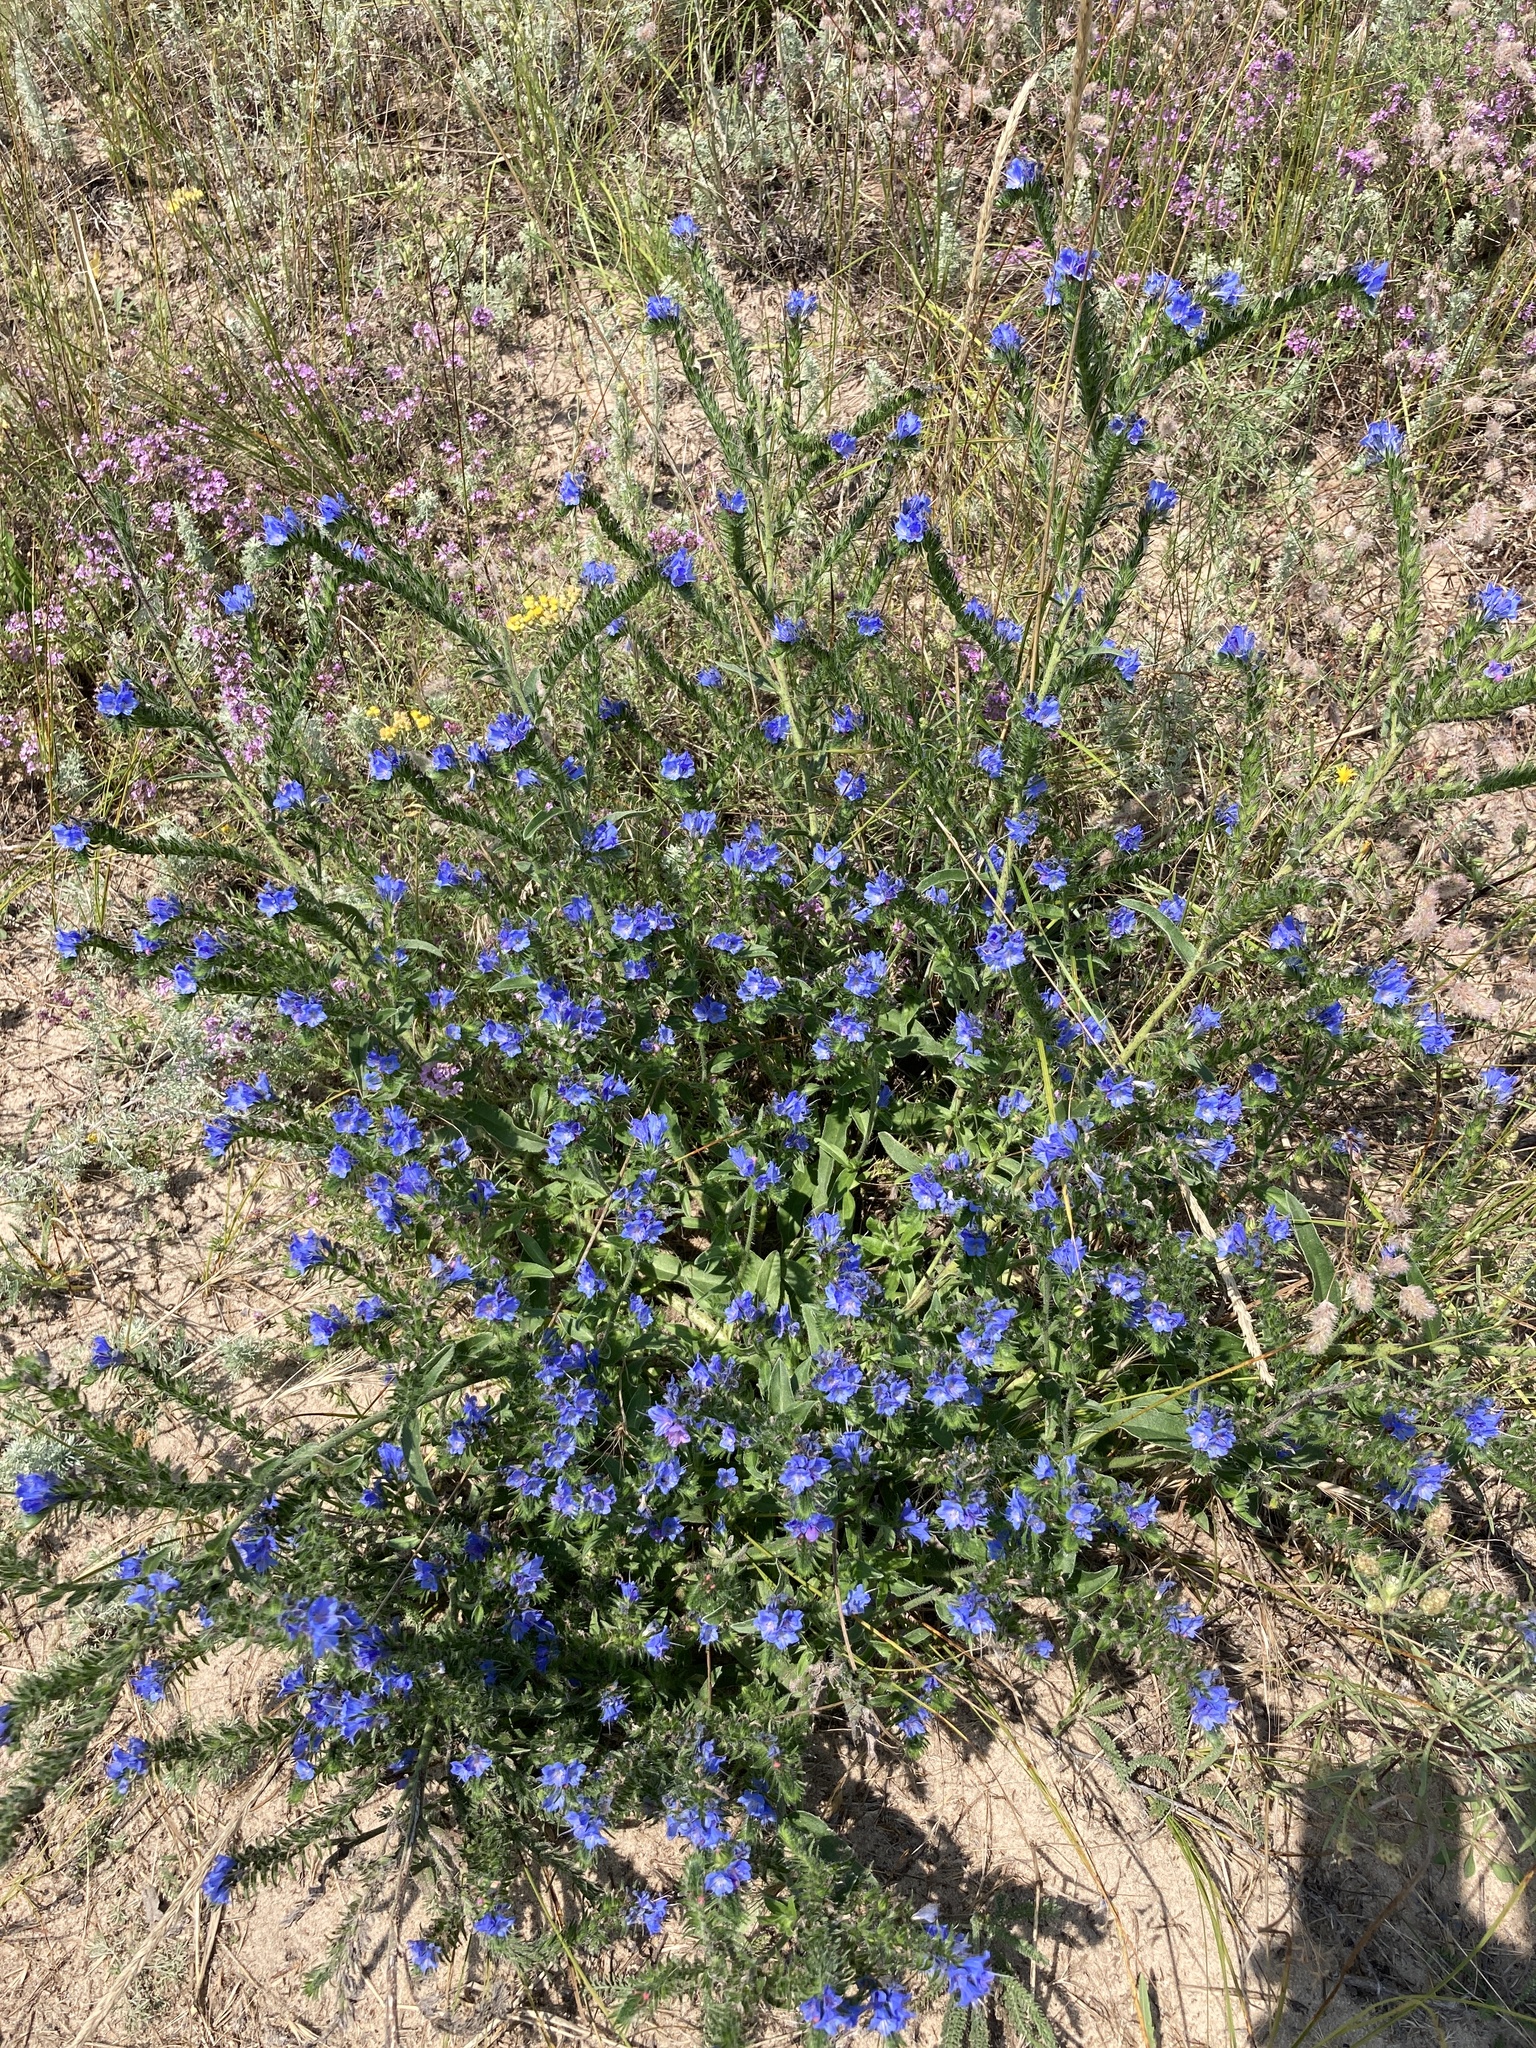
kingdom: Plantae
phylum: Tracheophyta
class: Magnoliopsida
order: Boraginales
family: Boraginaceae
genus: Echium
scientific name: Echium vulgare
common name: Common viper's bugloss
